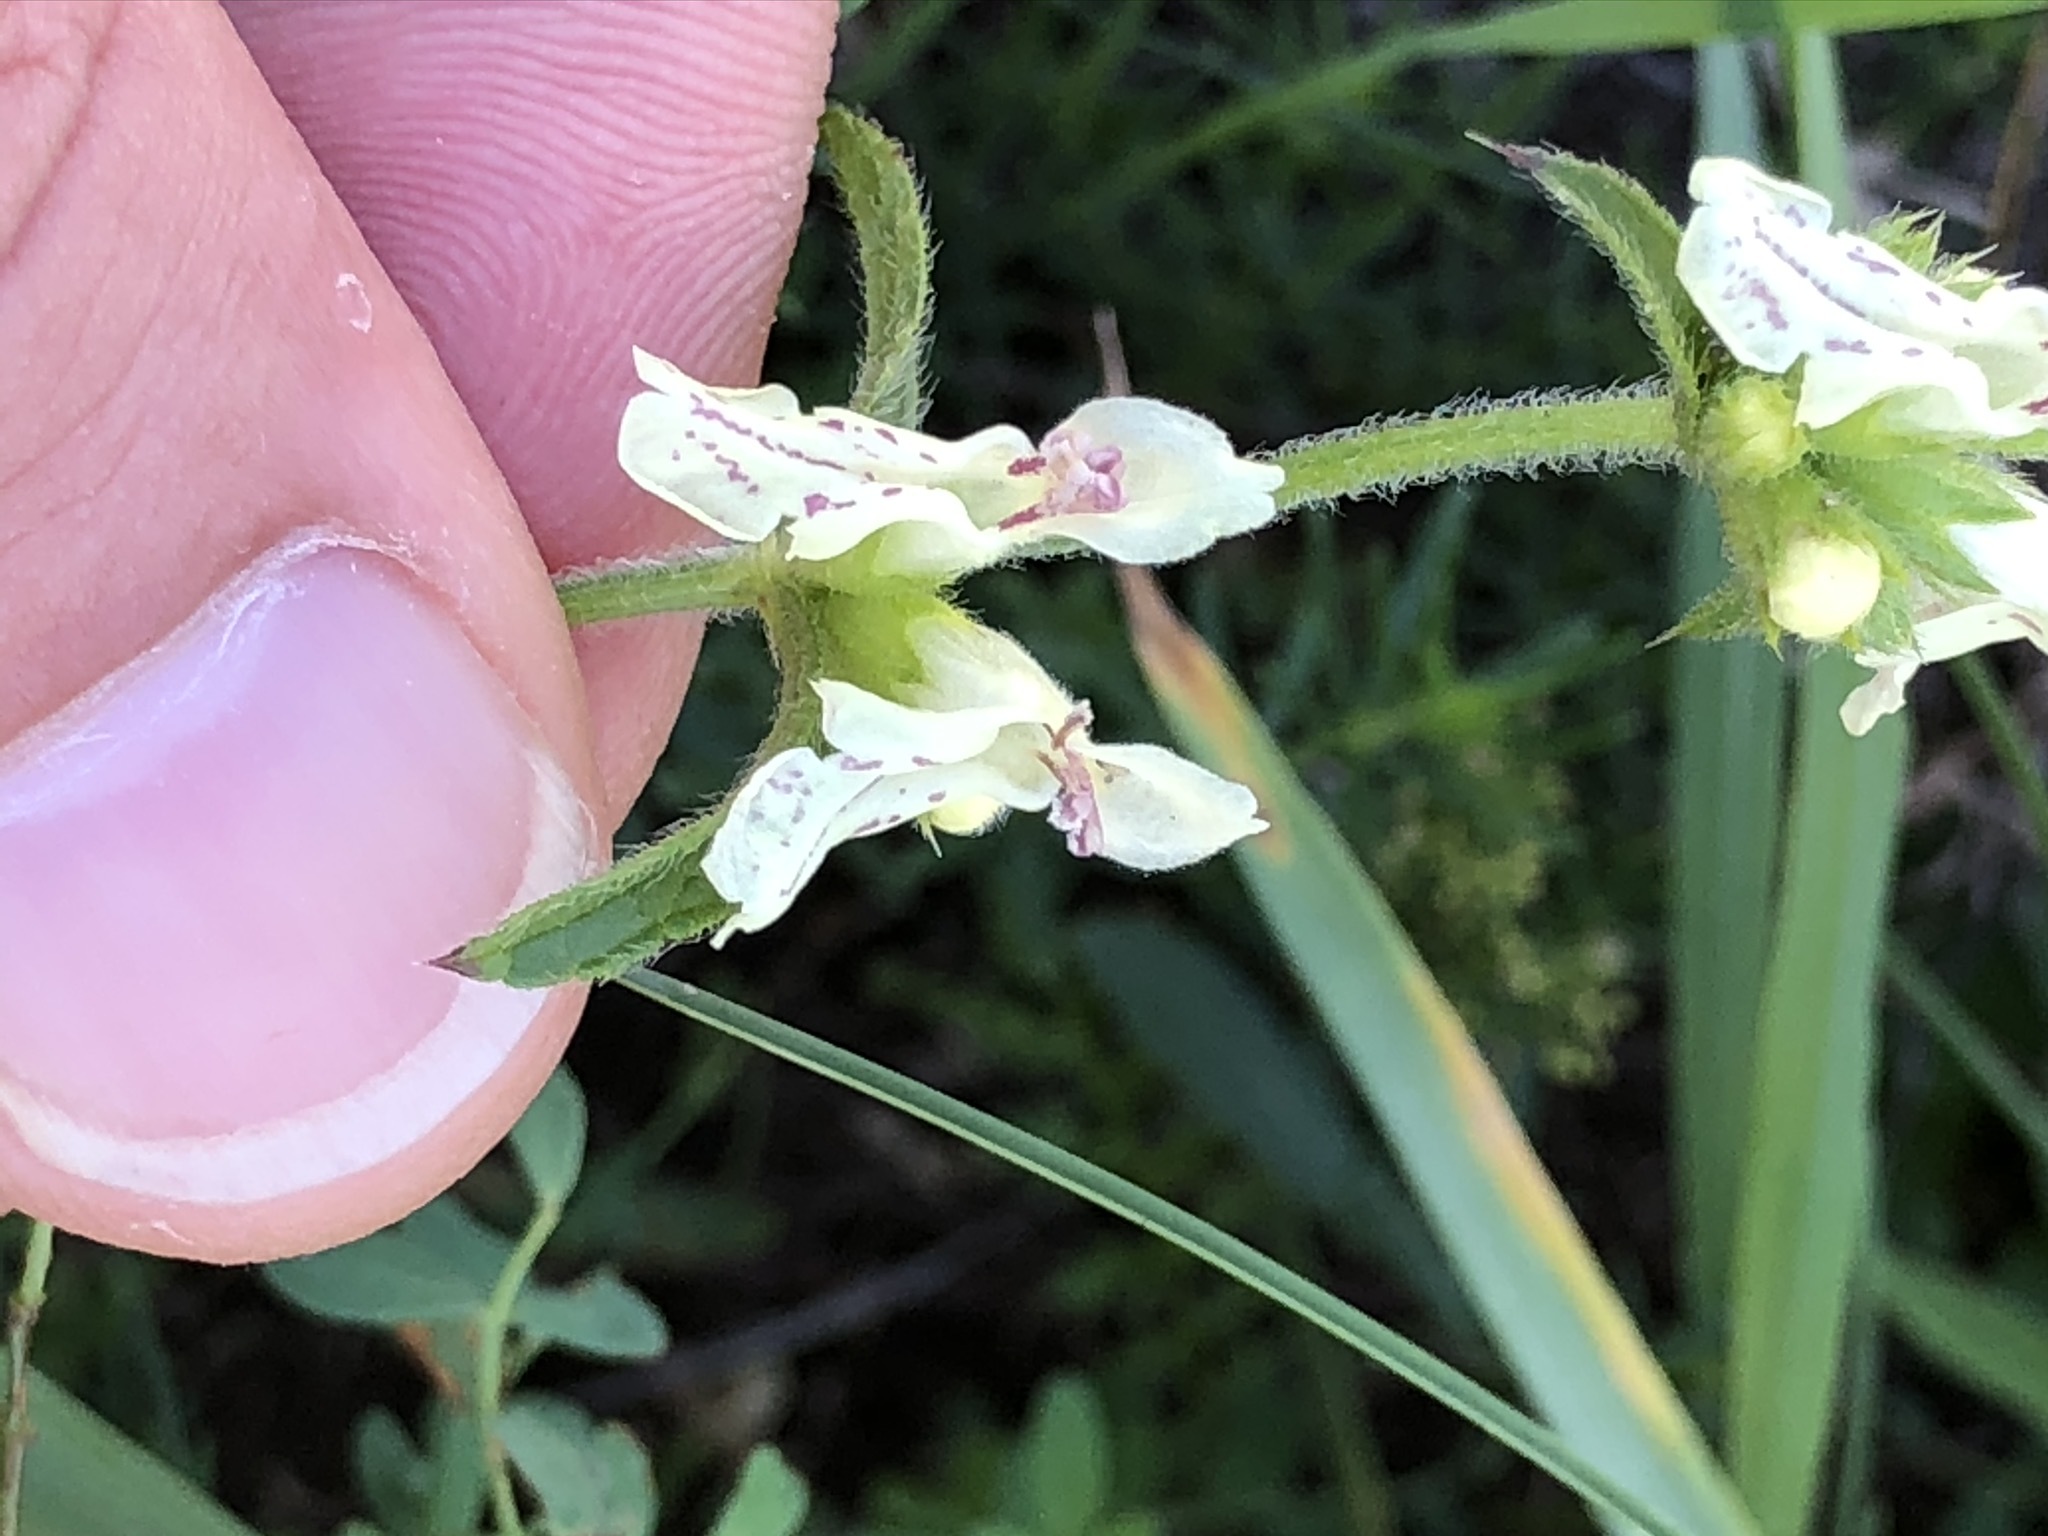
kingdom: Plantae
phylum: Tracheophyta
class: Magnoliopsida
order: Lamiales
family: Lamiaceae
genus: Stachys
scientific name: Stachys recta
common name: Perennial yellow-woundwort
